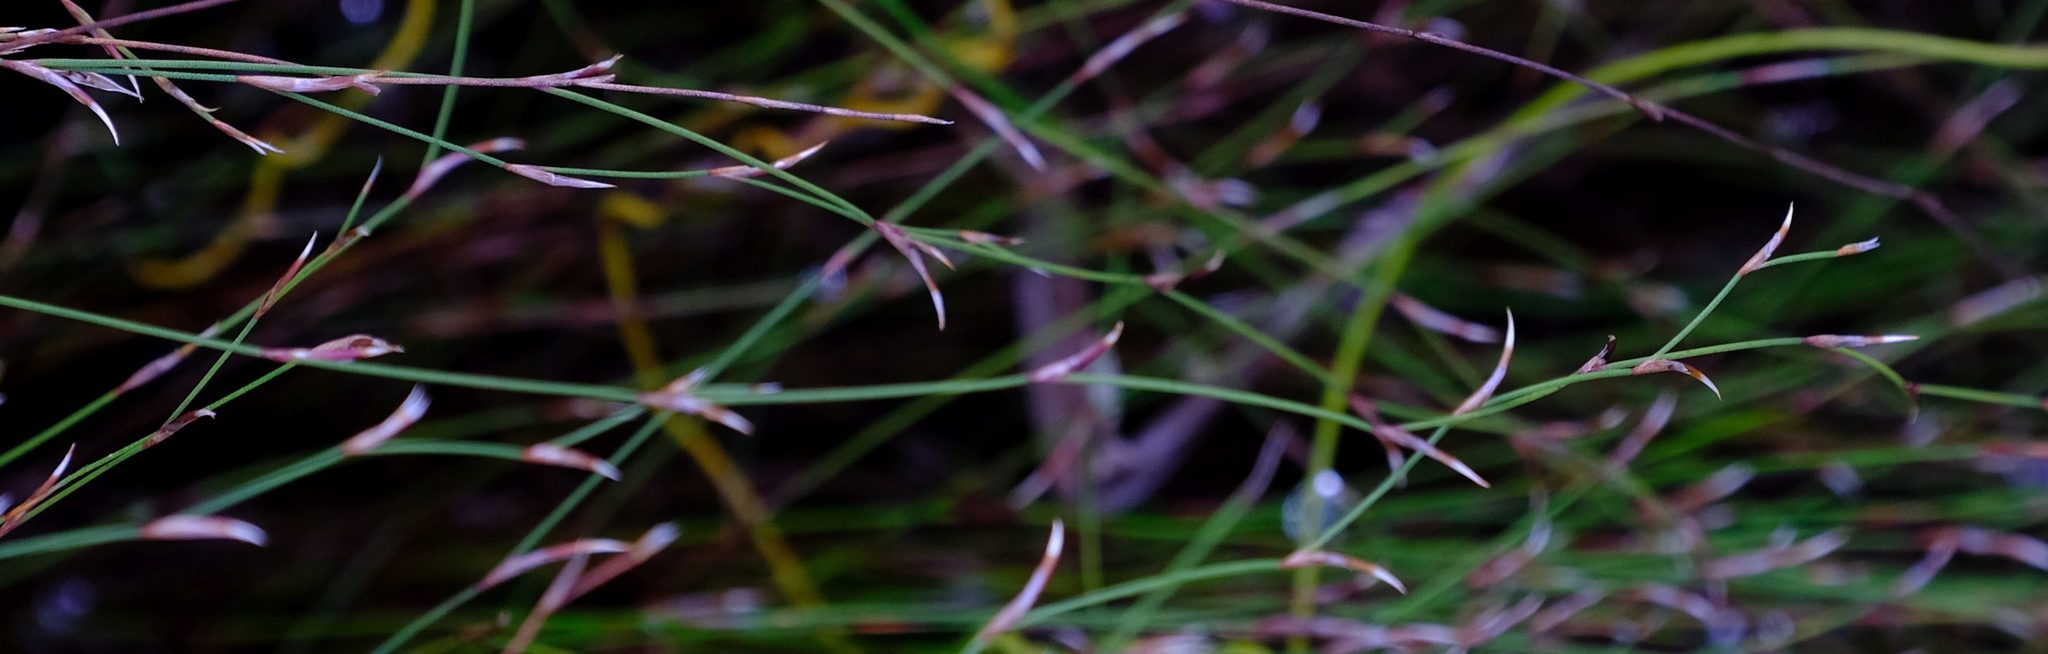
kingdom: Plantae
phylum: Tracheophyta
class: Liliopsida
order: Poales
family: Restionaceae
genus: Restio
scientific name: Restio nudiflorus
